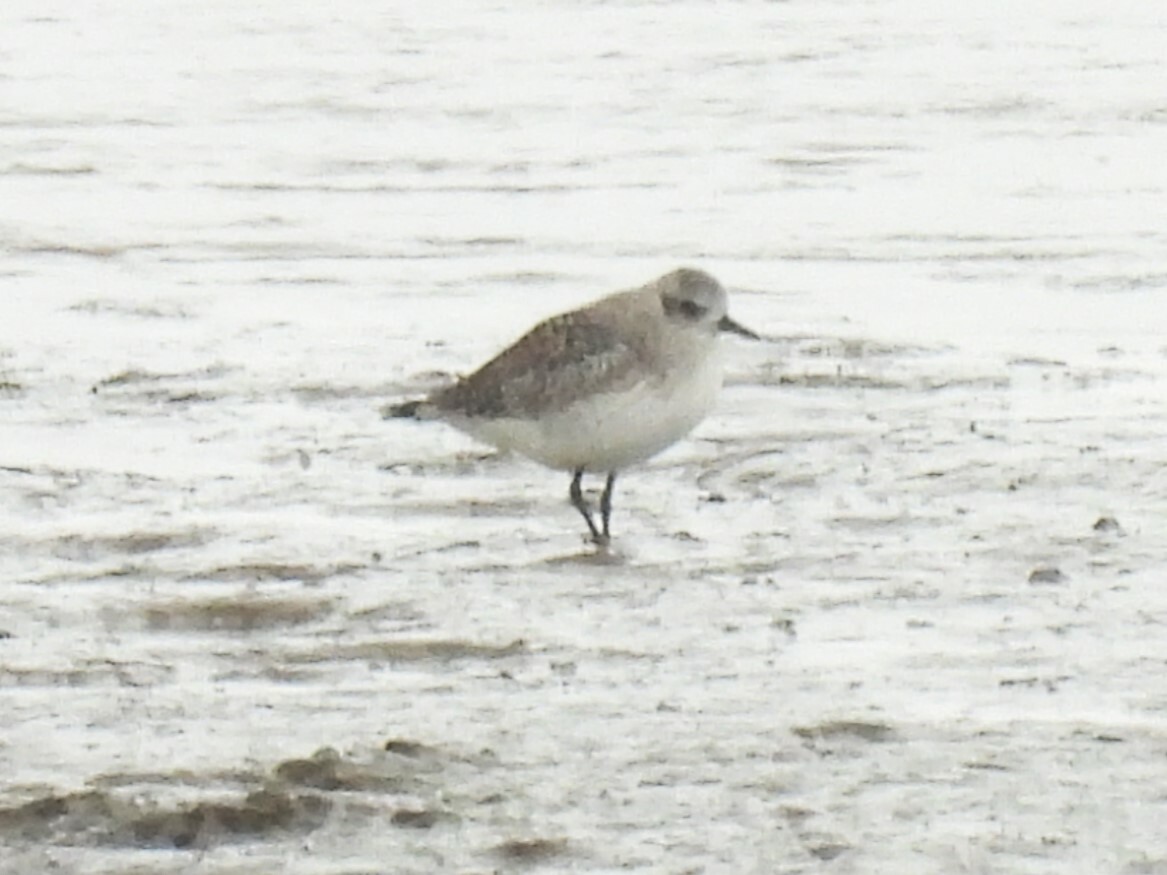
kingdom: Animalia
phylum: Chordata
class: Aves
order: Charadriiformes
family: Charadriidae
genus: Pluvialis
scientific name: Pluvialis squatarola
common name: Grey plover
